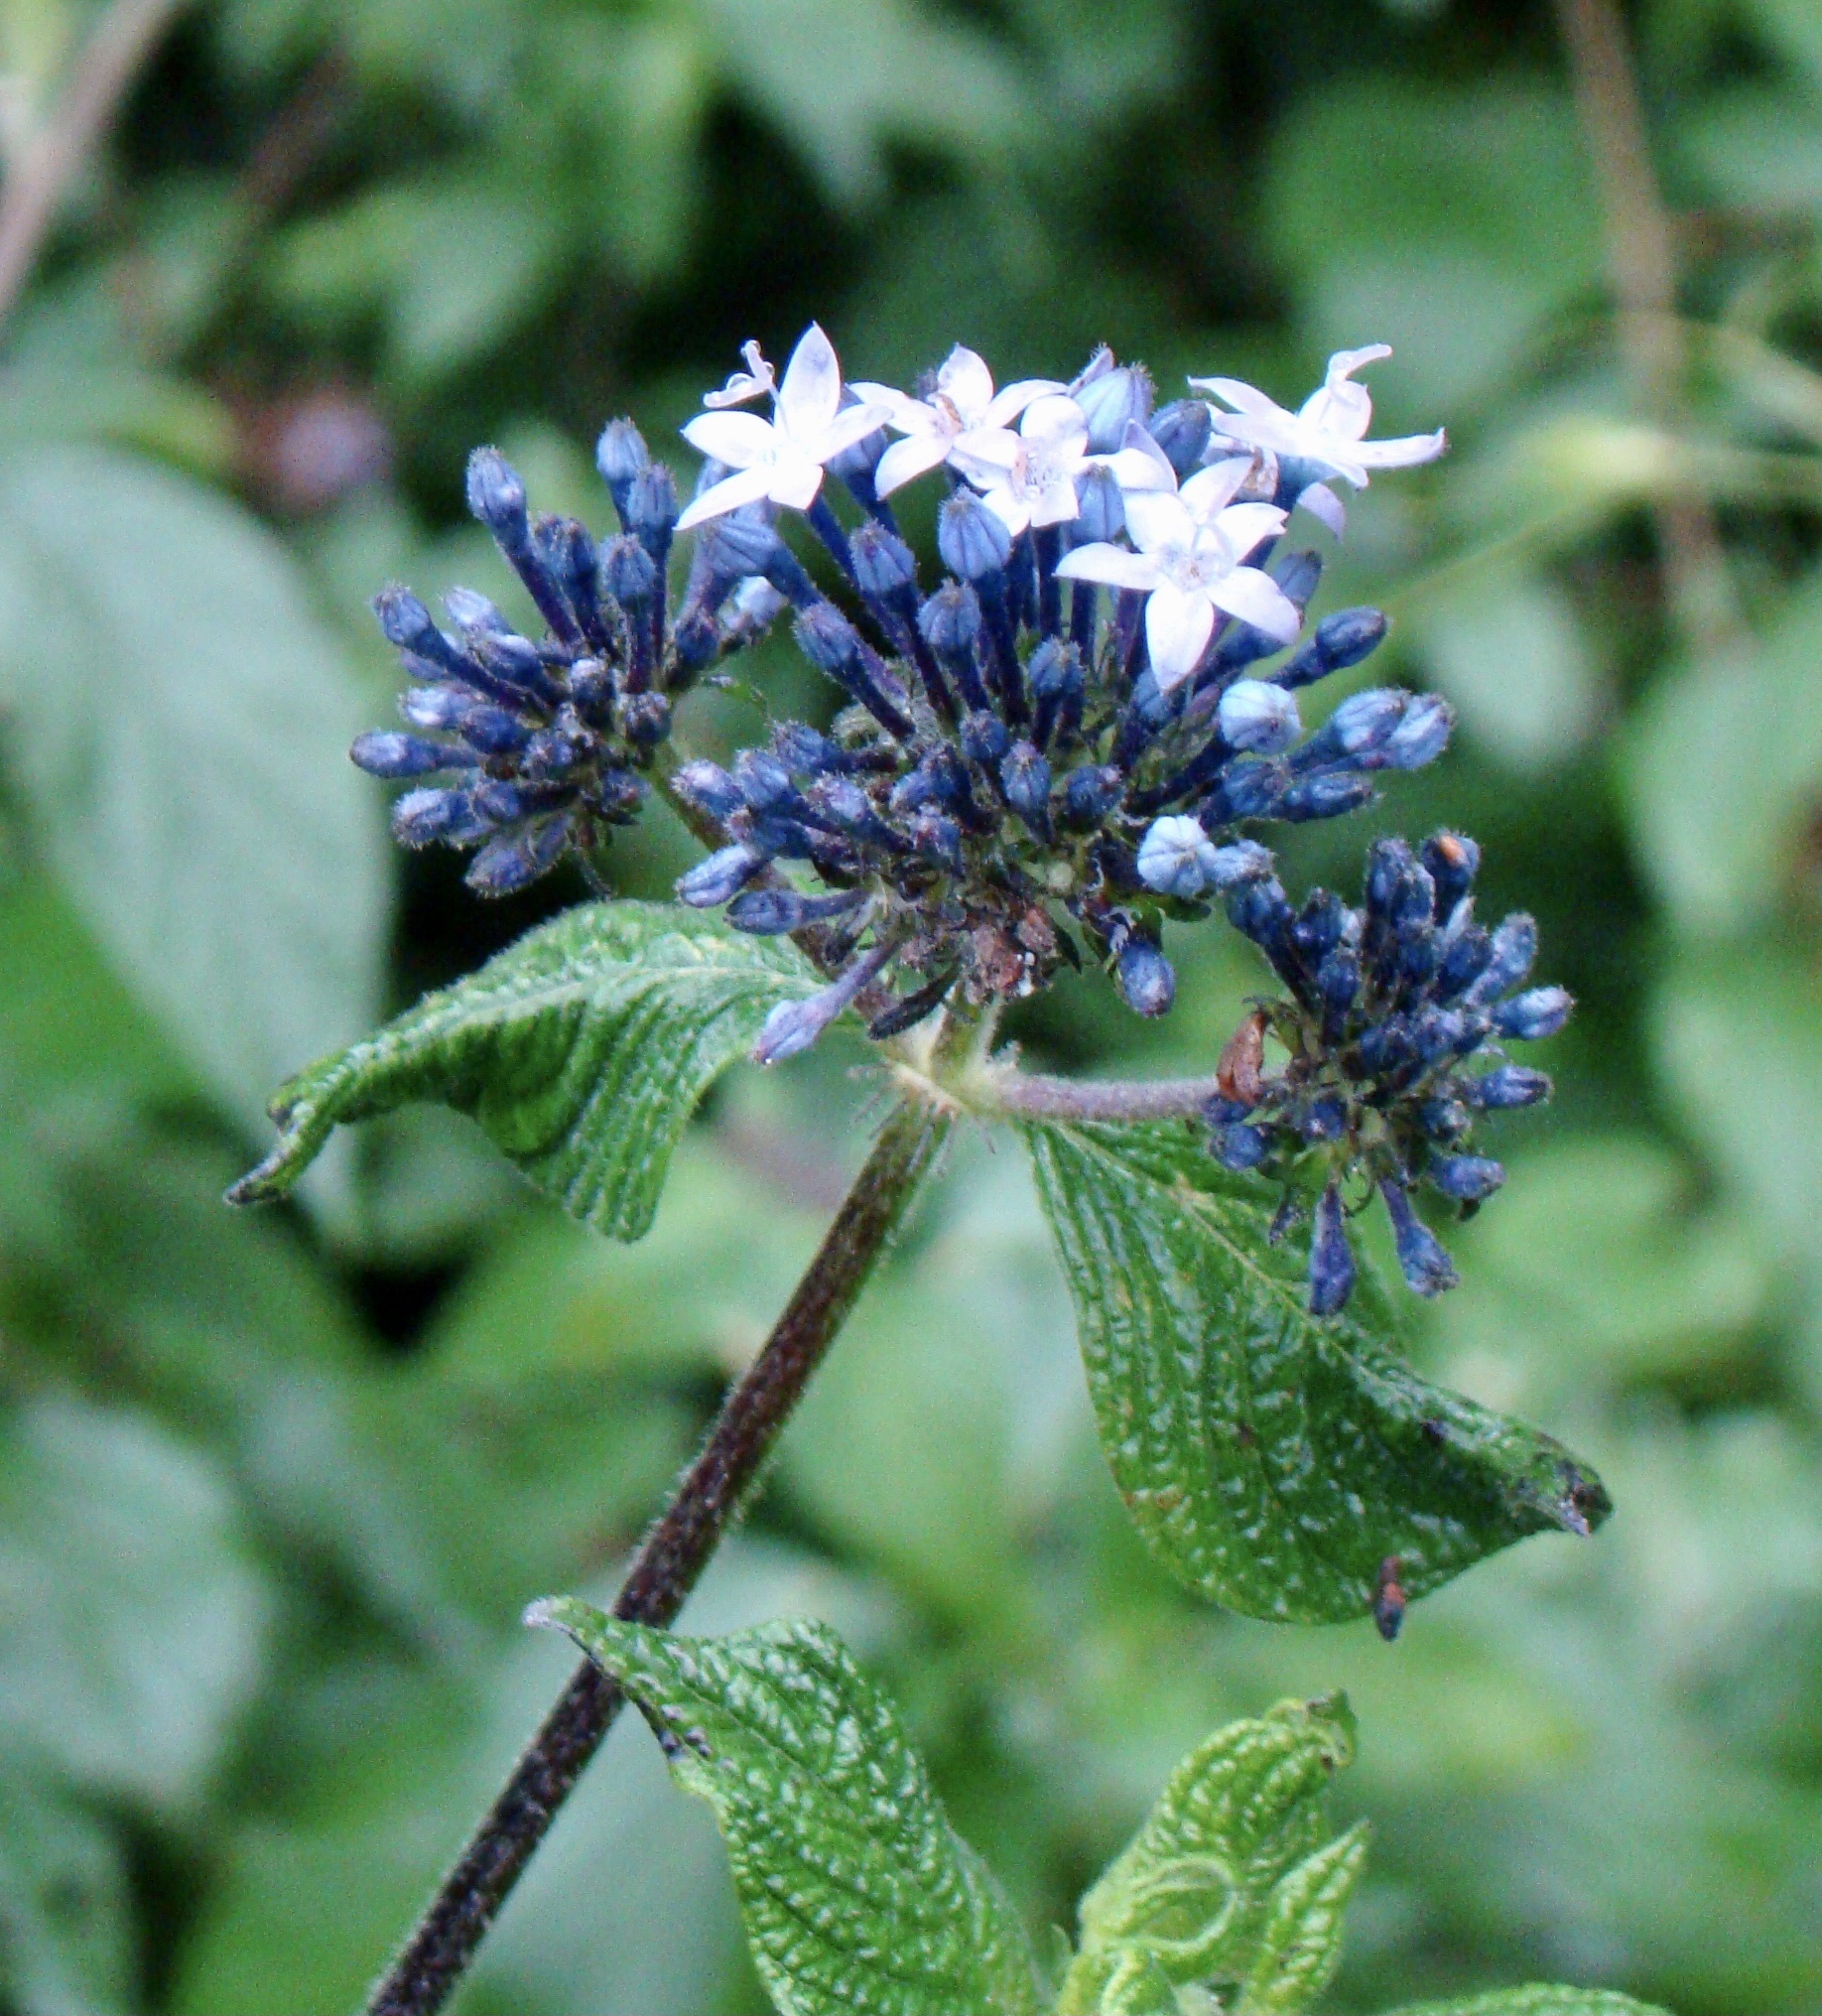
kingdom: Plantae
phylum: Tracheophyta
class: Magnoliopsida
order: Gentianales
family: Rubiaceae
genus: Pentas
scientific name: Pentas lanceolata
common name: Egyptian starcluster
